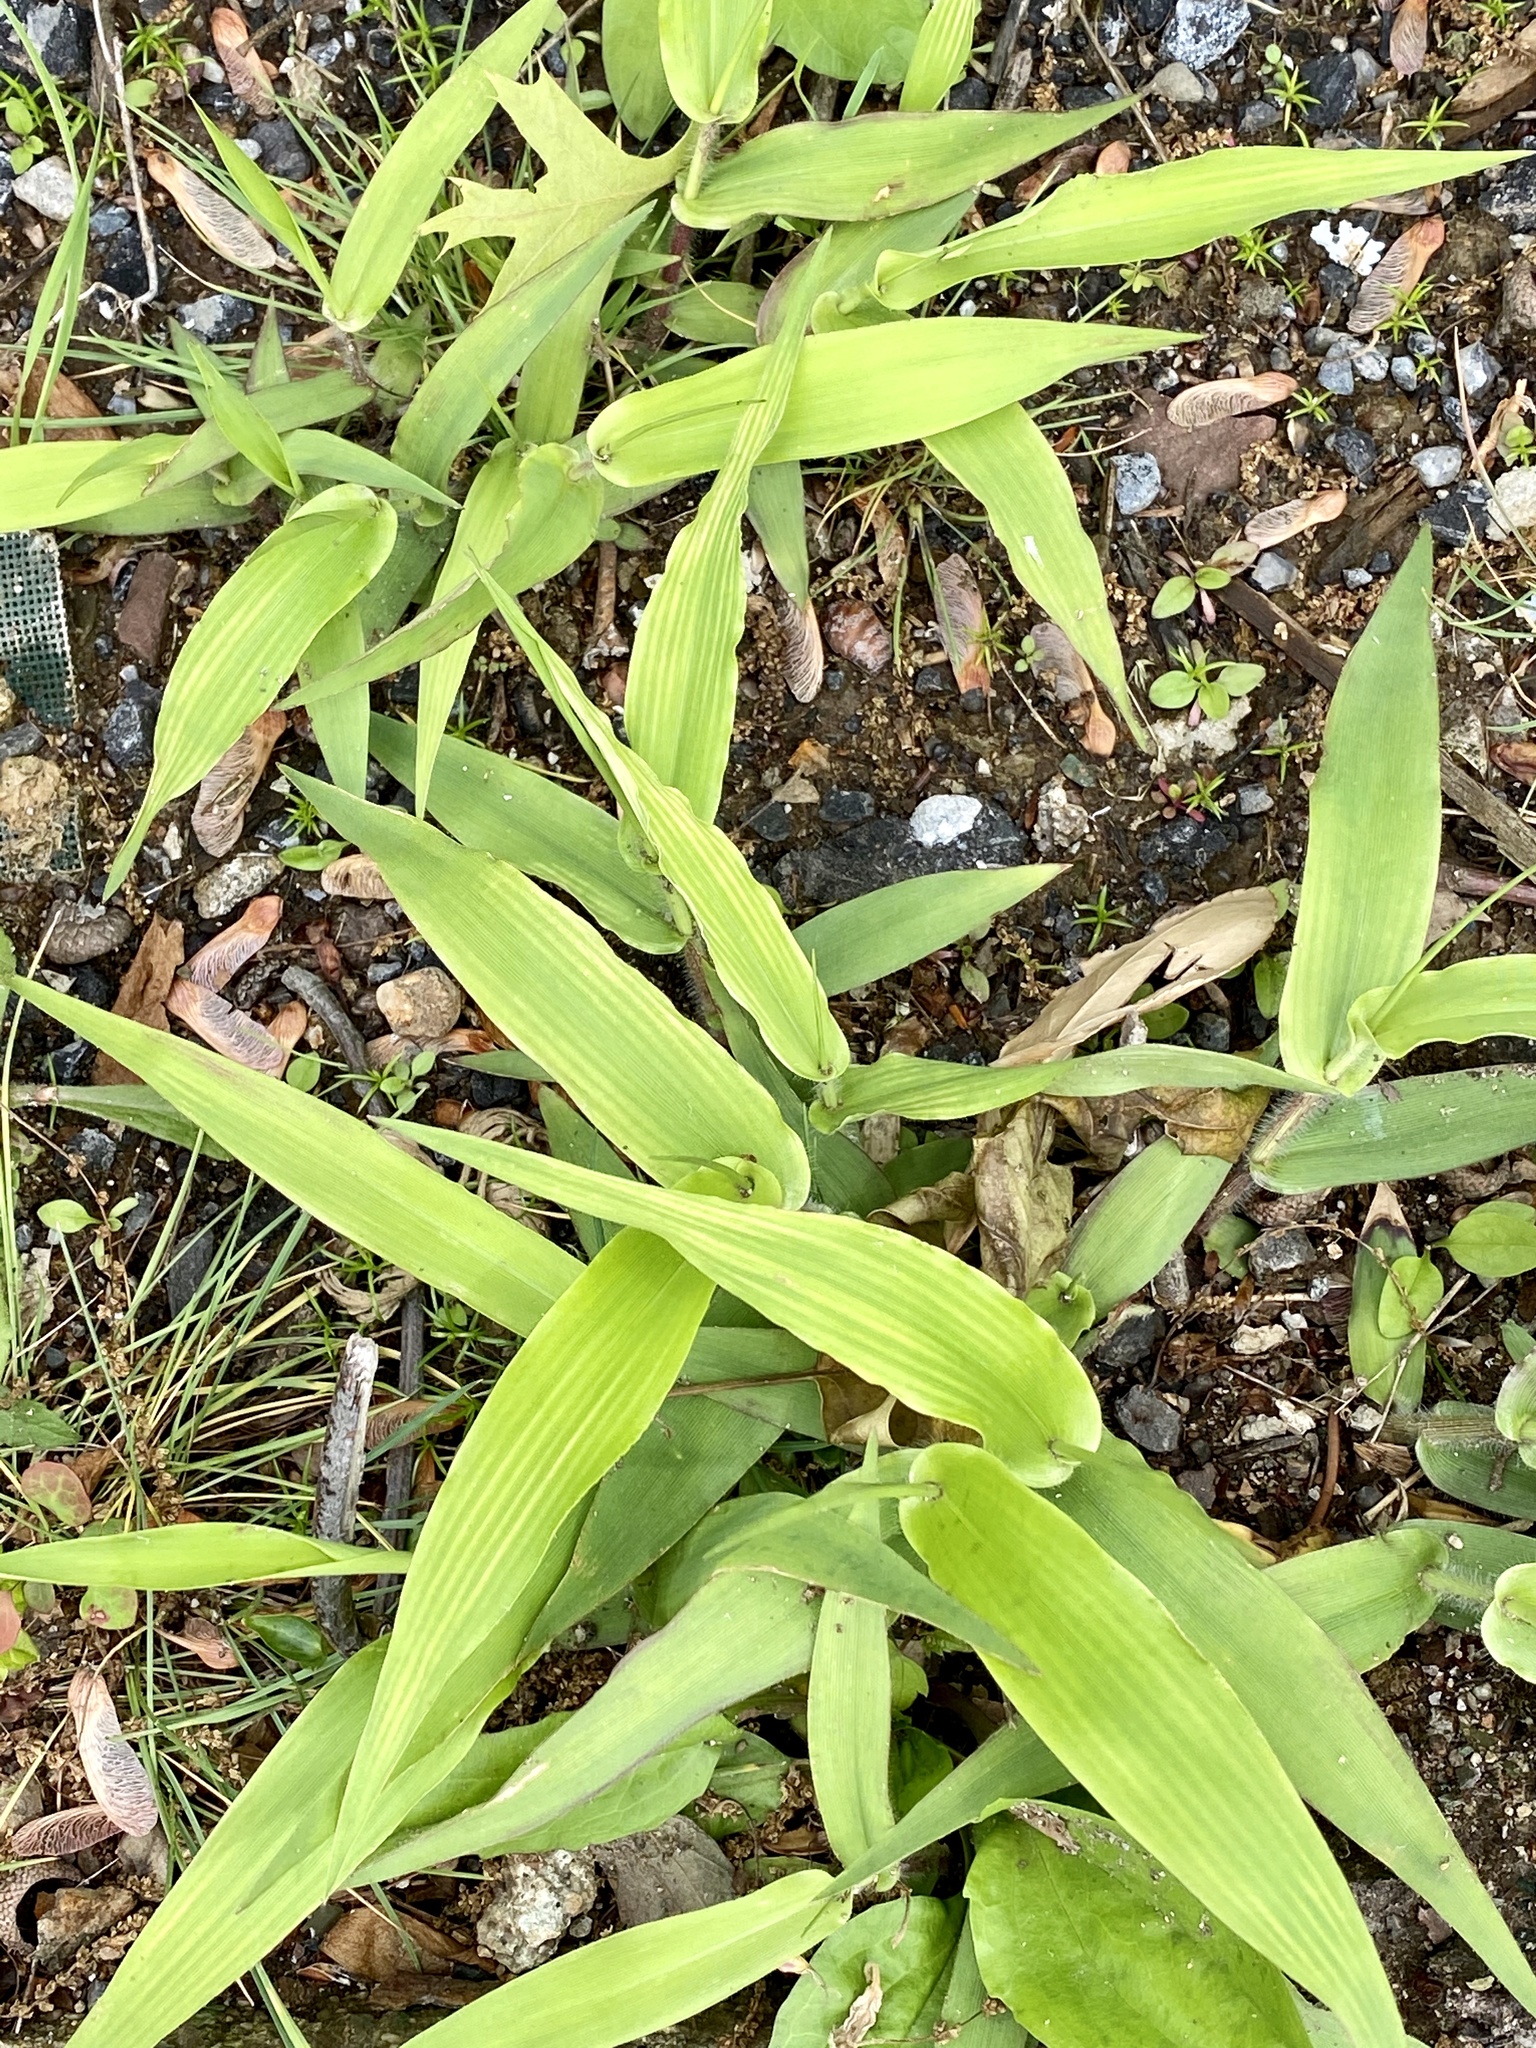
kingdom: Plantae
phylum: Tracheophyta
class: Liliopsida
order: Poales
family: Poaceae
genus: Dichanthelium
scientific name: Dichanthelium clandestinum
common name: Deer-tongue grass
